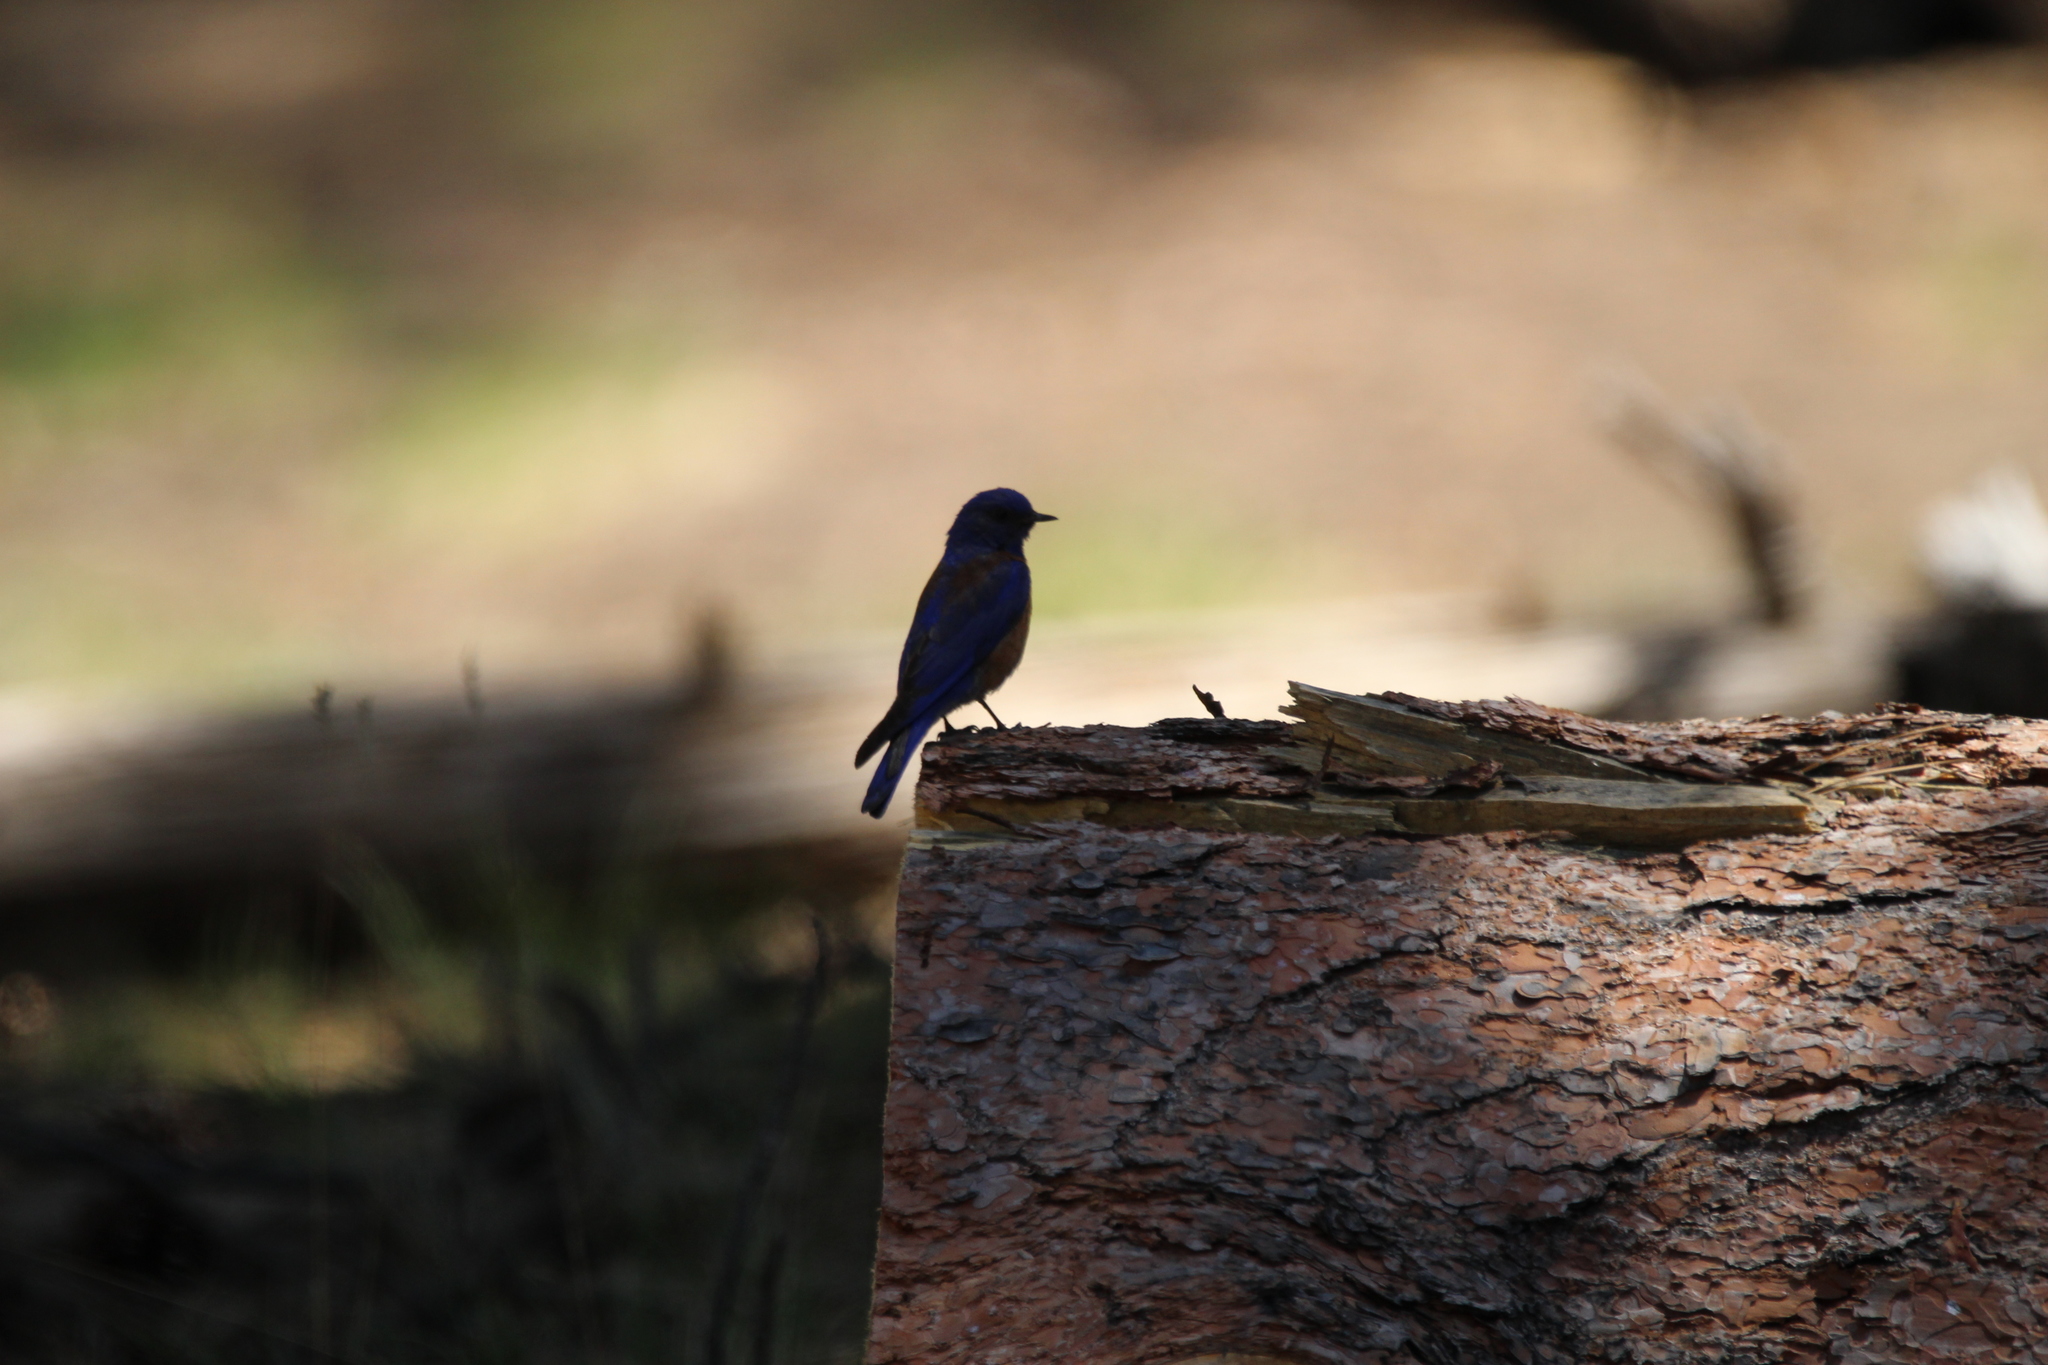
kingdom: Animalia
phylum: Chordata
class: Aves
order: Passeriformes
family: Turdidae
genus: Sialia
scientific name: Sialia mexicana
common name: Western bluebird
